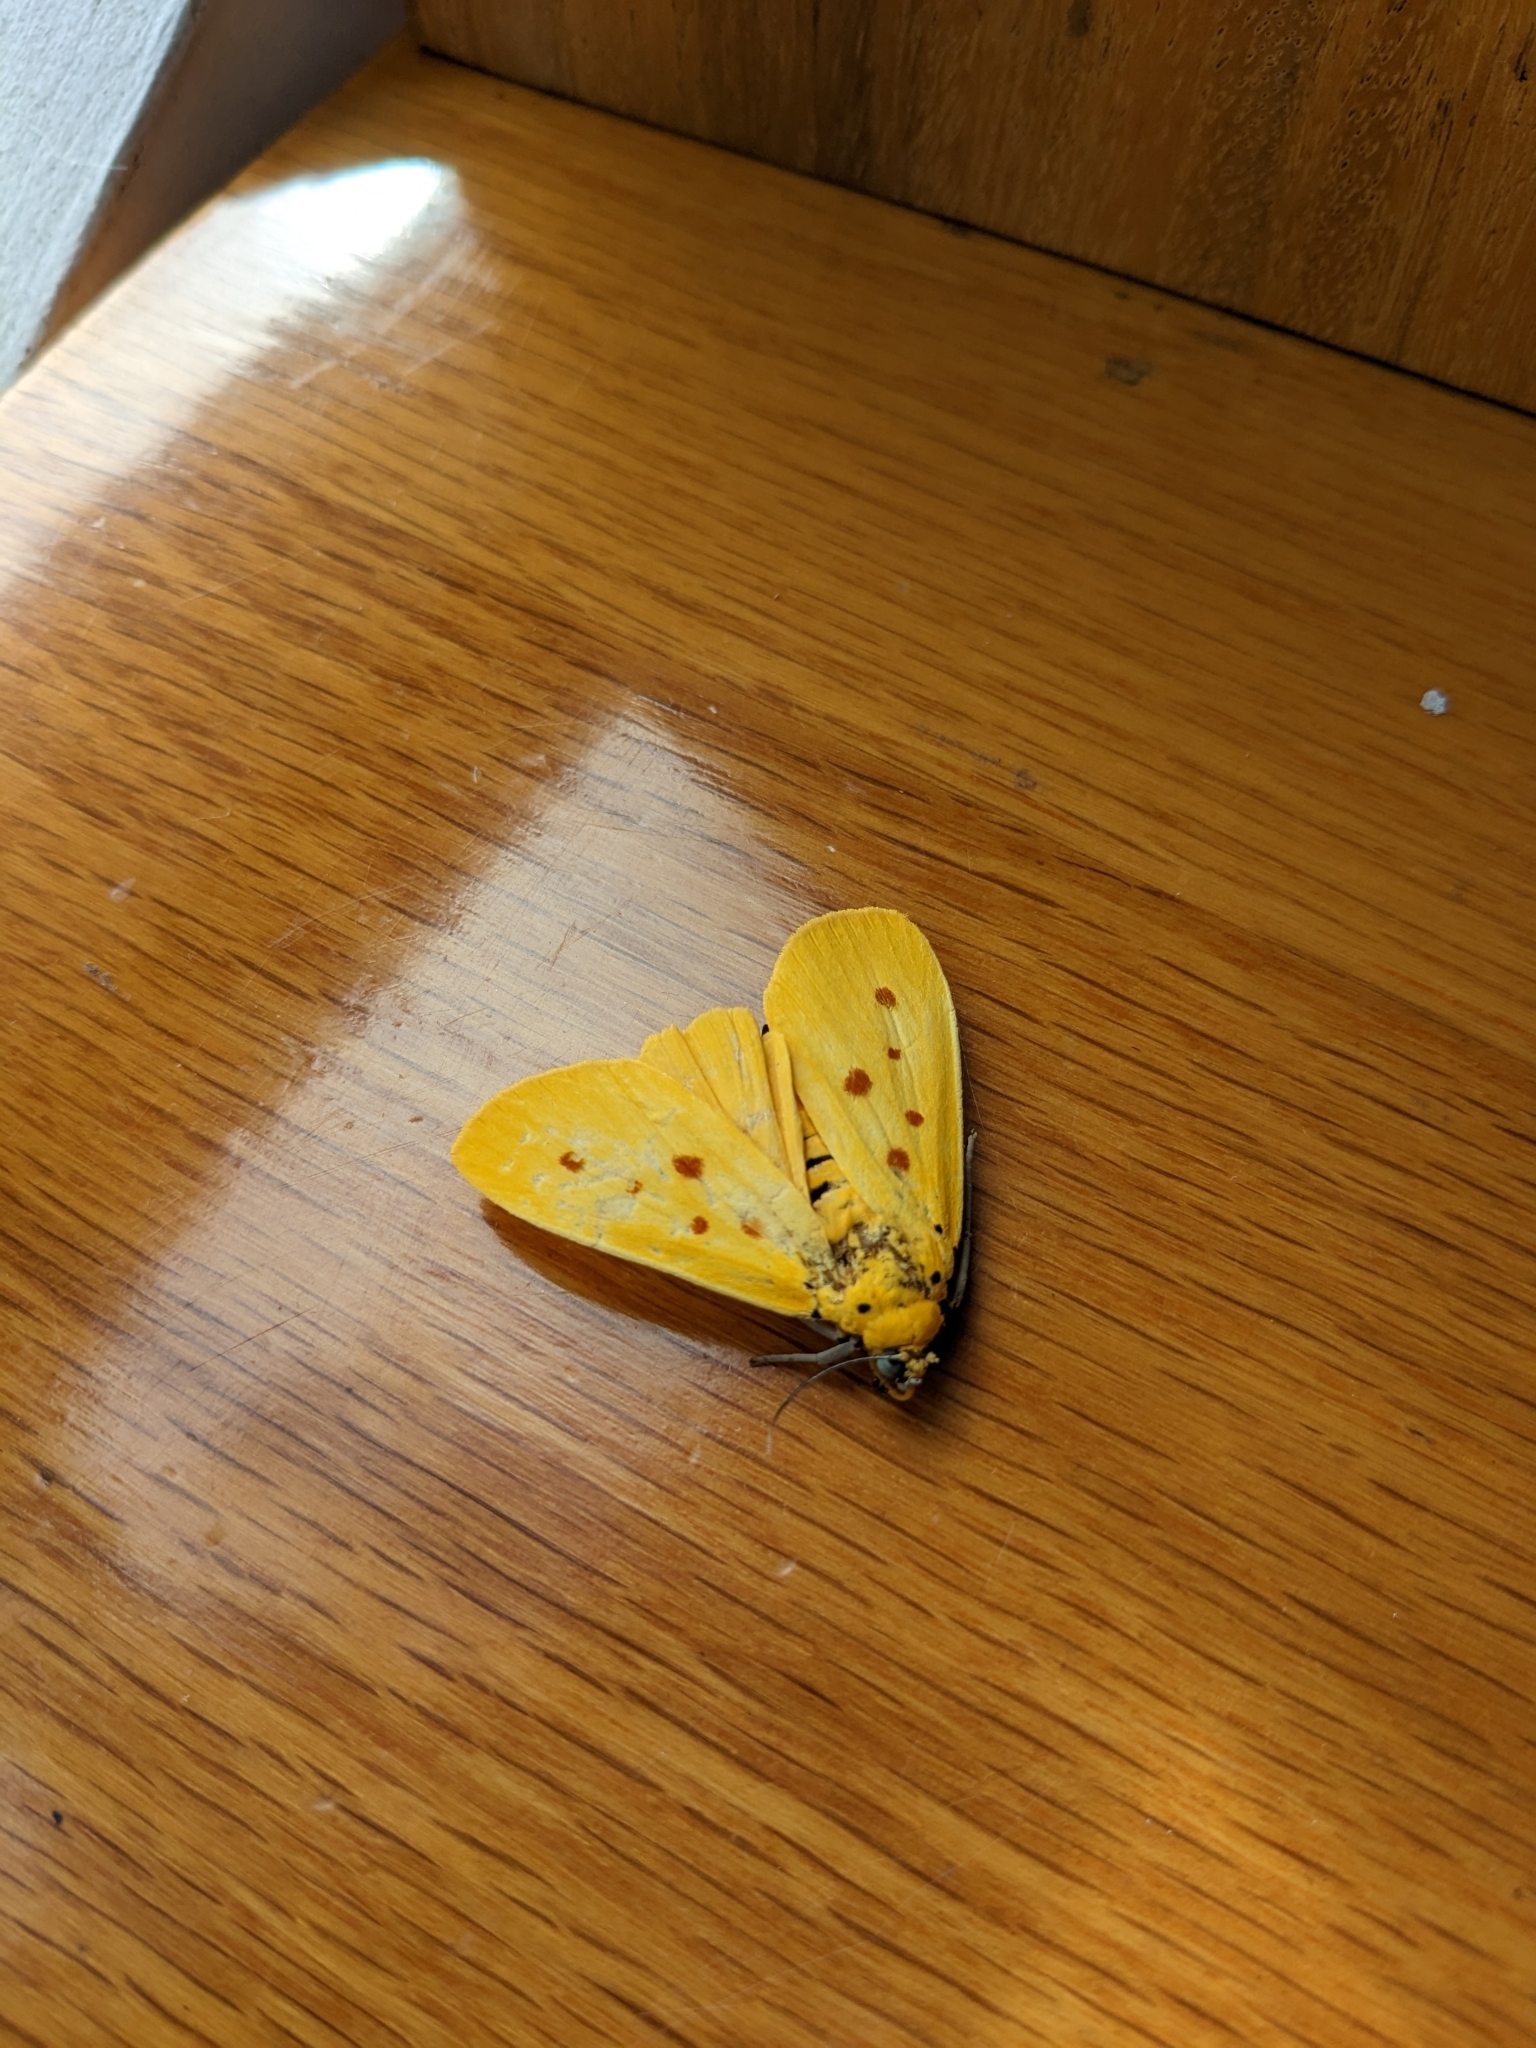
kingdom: Animalia
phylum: Arthropoda
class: Insecta
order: Lepidoptera
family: Noctuidae
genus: Agape
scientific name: Agape chloropyga
